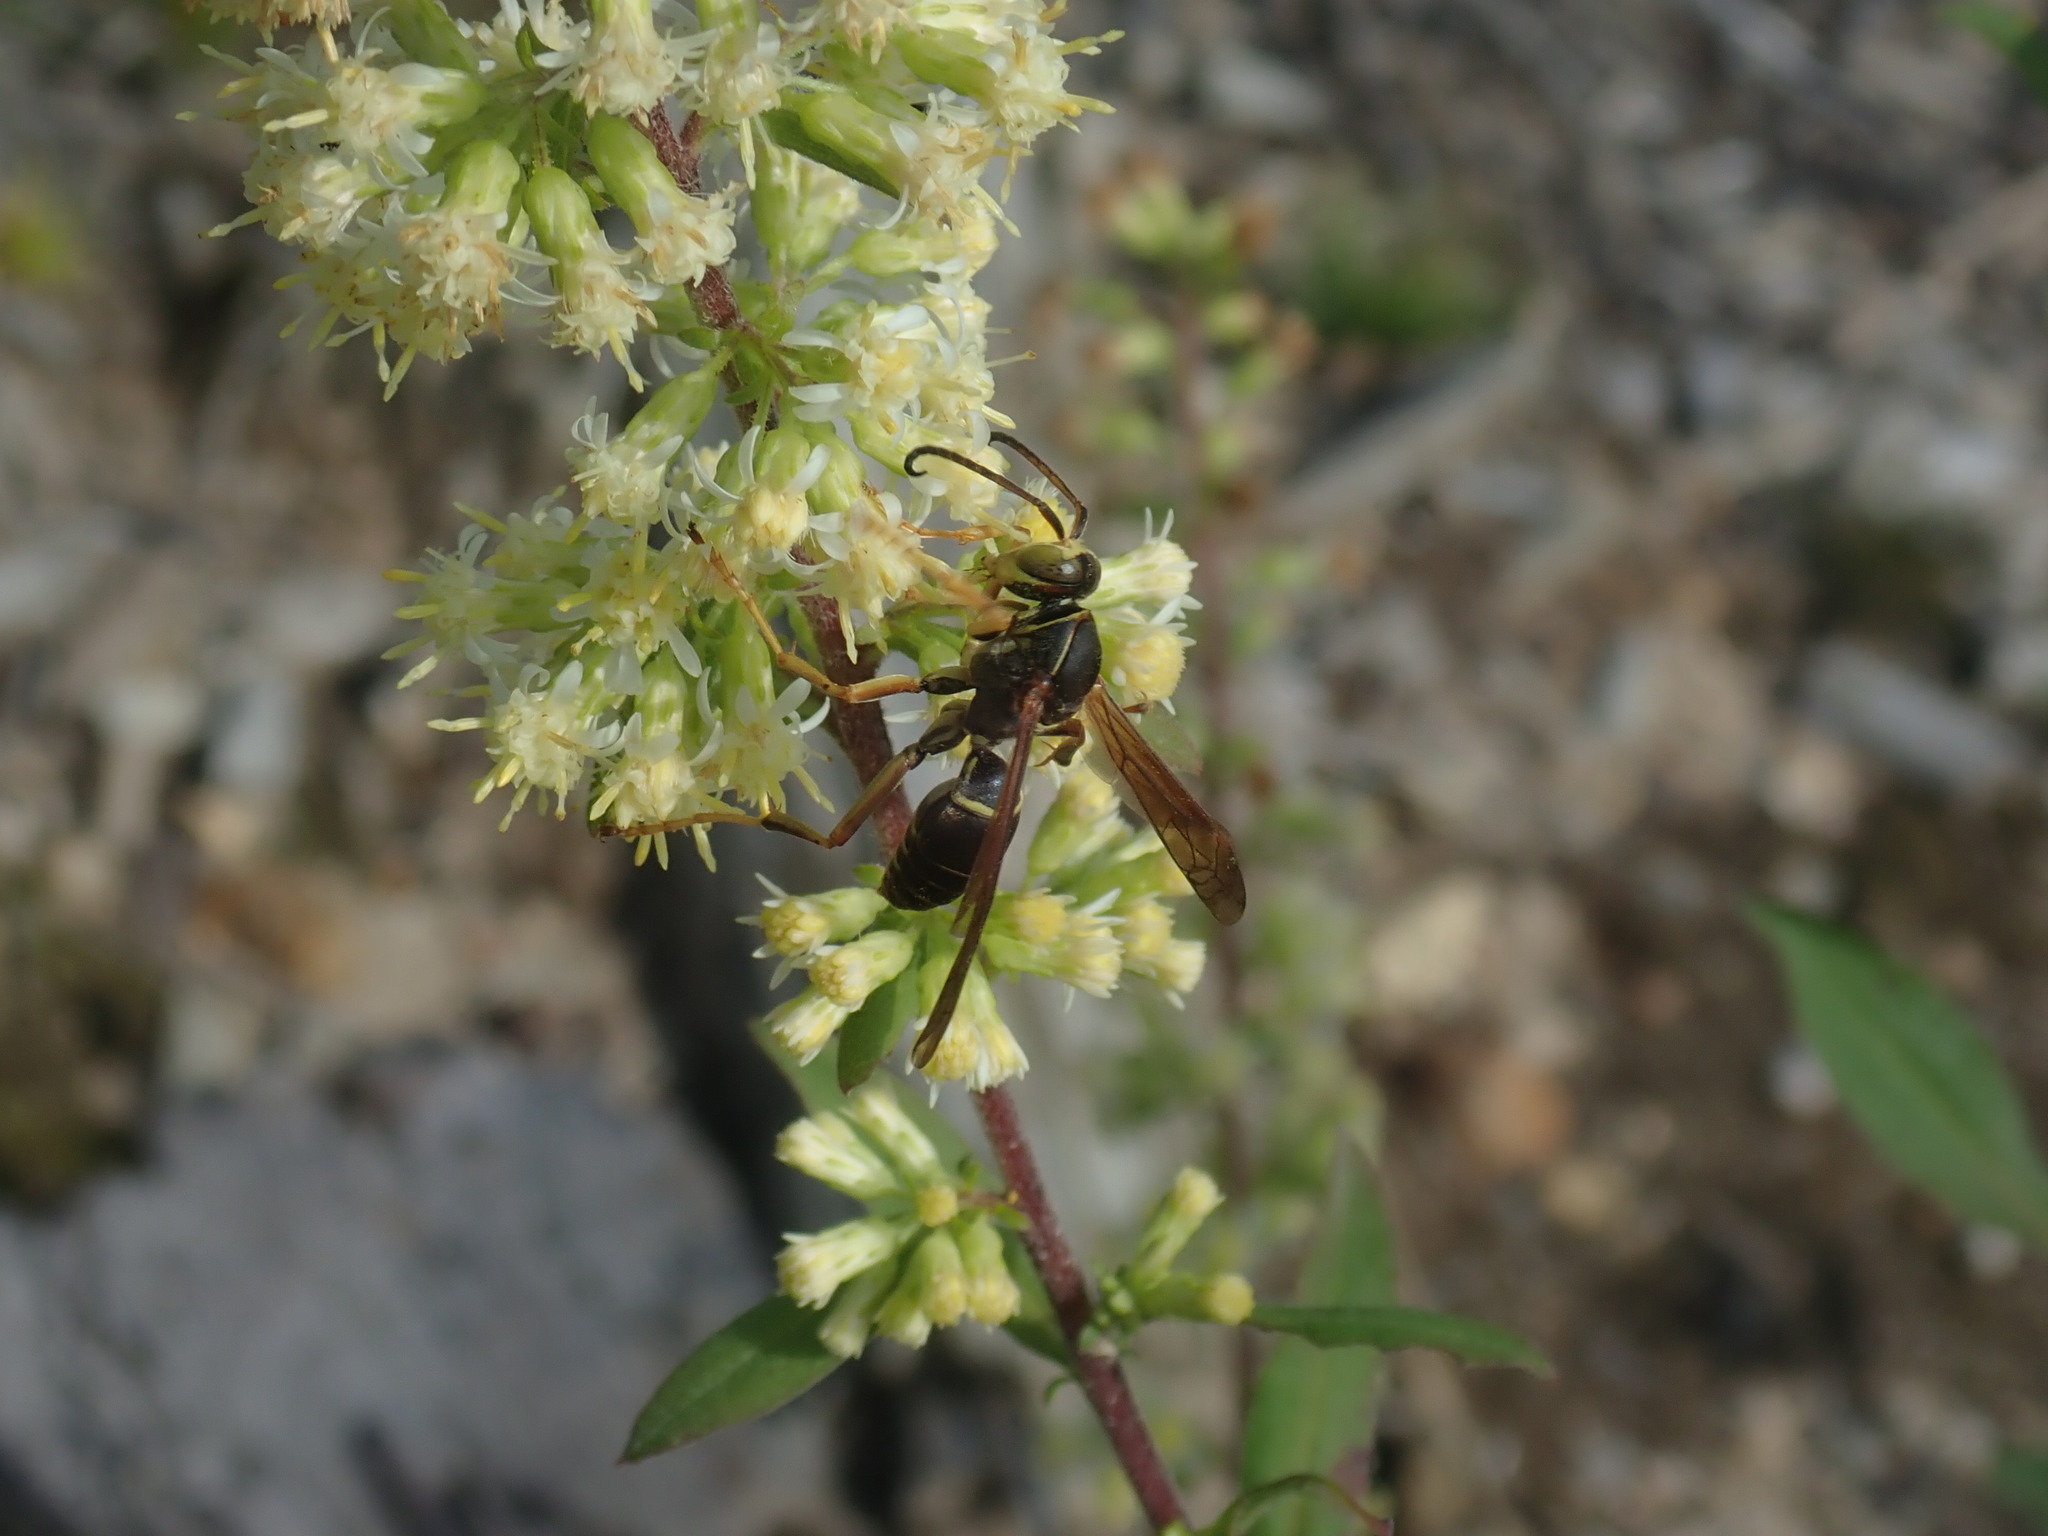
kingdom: Animalia
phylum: Arthropoda
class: Insecta
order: Hymenoptera
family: Eumenidae
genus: Polistes
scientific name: Polistes fuscatus
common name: Dark paper wasp
